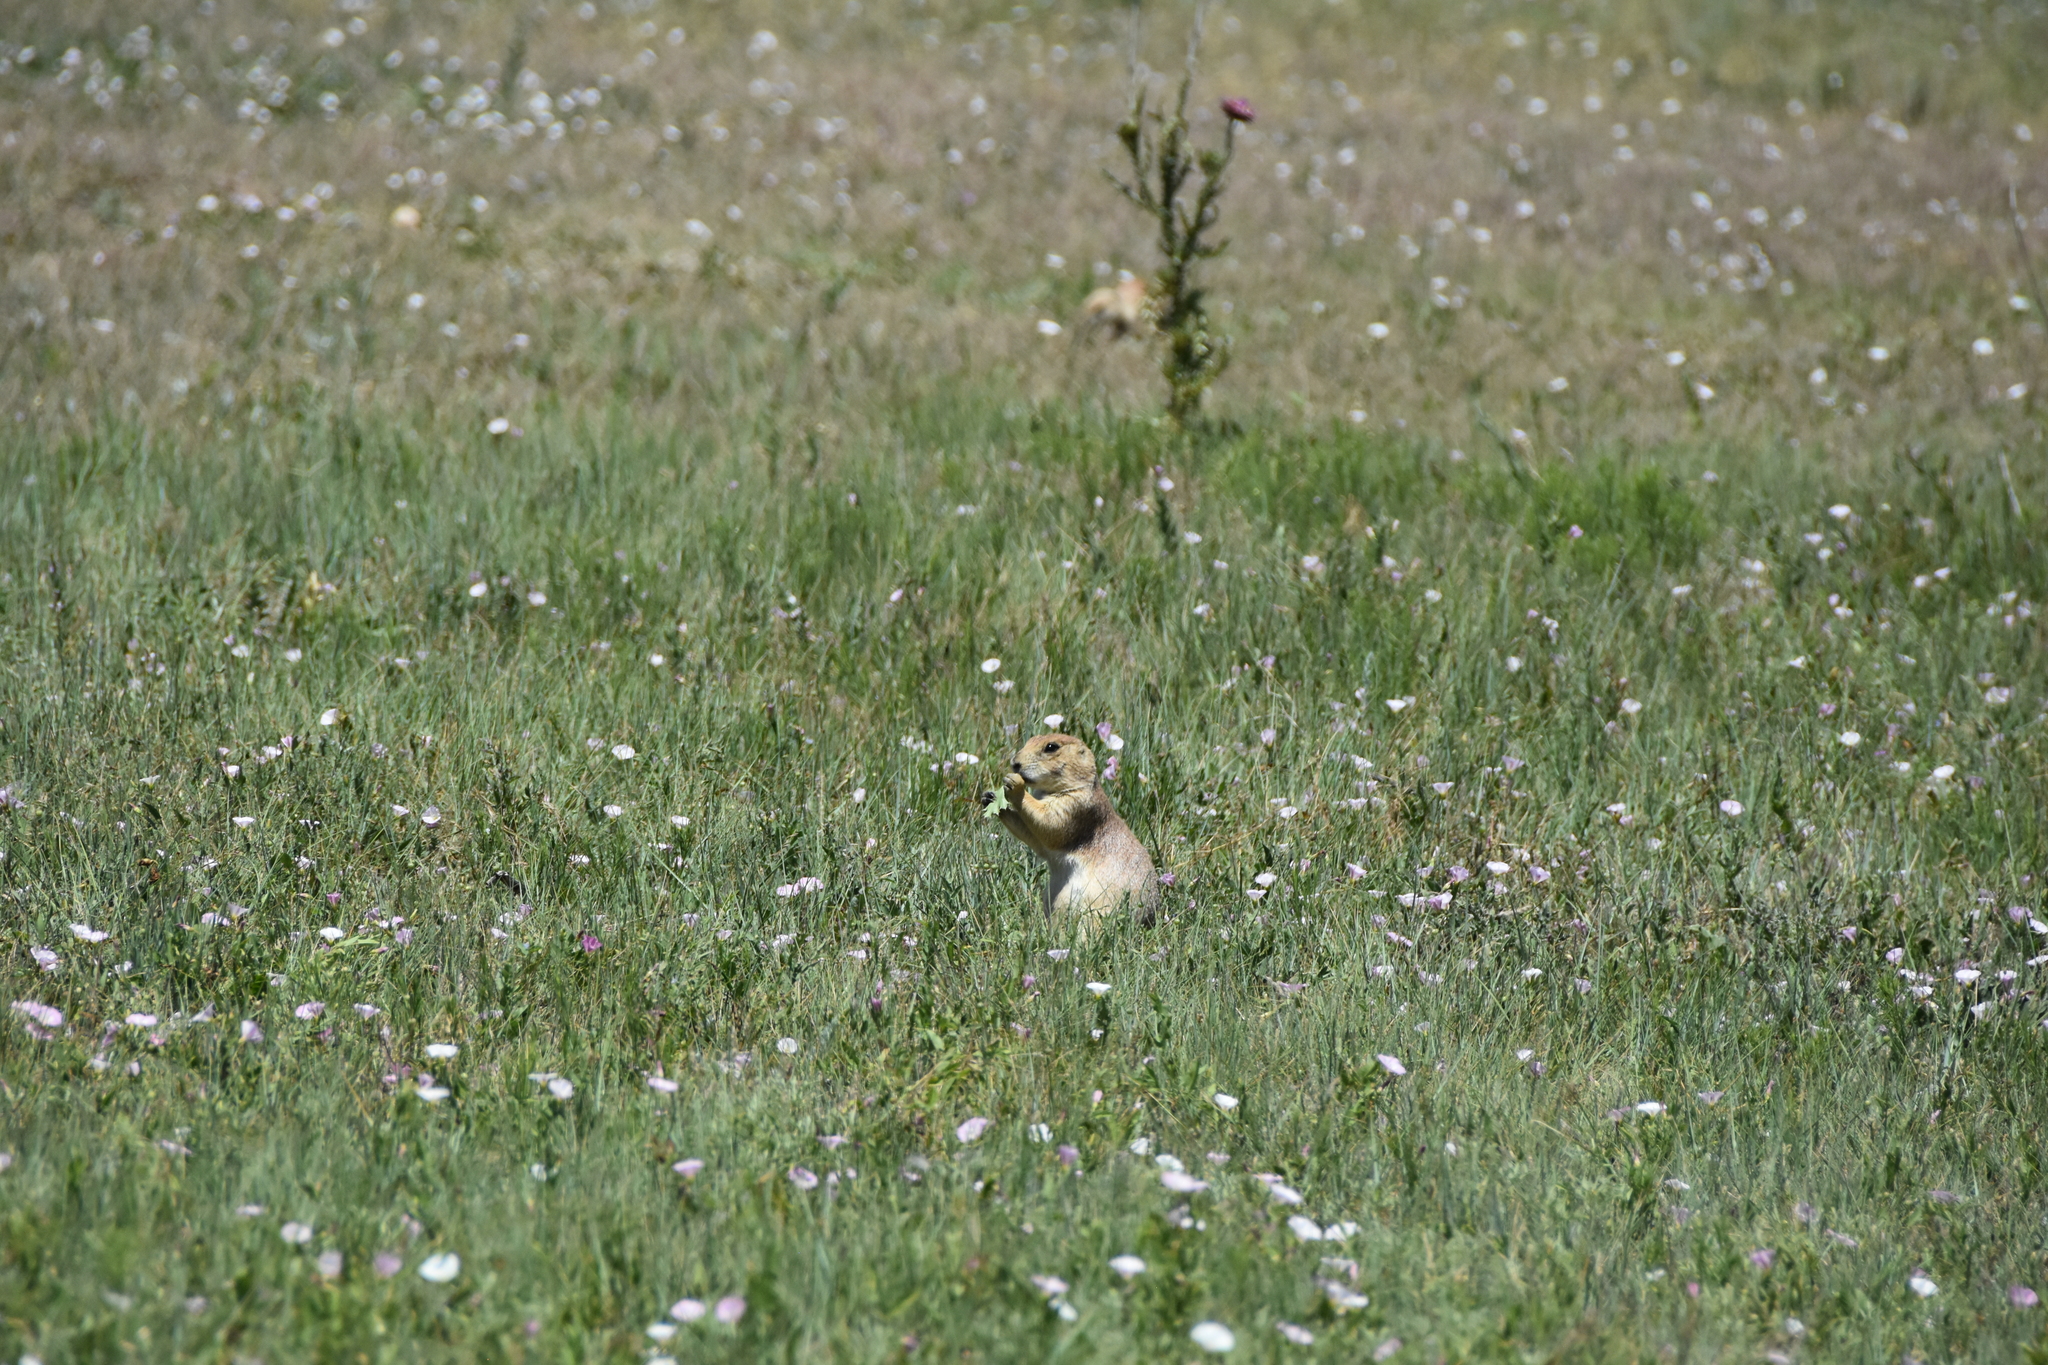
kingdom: Animalia
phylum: Chordata
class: Mammalia
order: Rodentia
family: Sciuridae
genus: Cynomys
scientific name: Cynomys ludovicianus
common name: Black-tailed prairie dog
